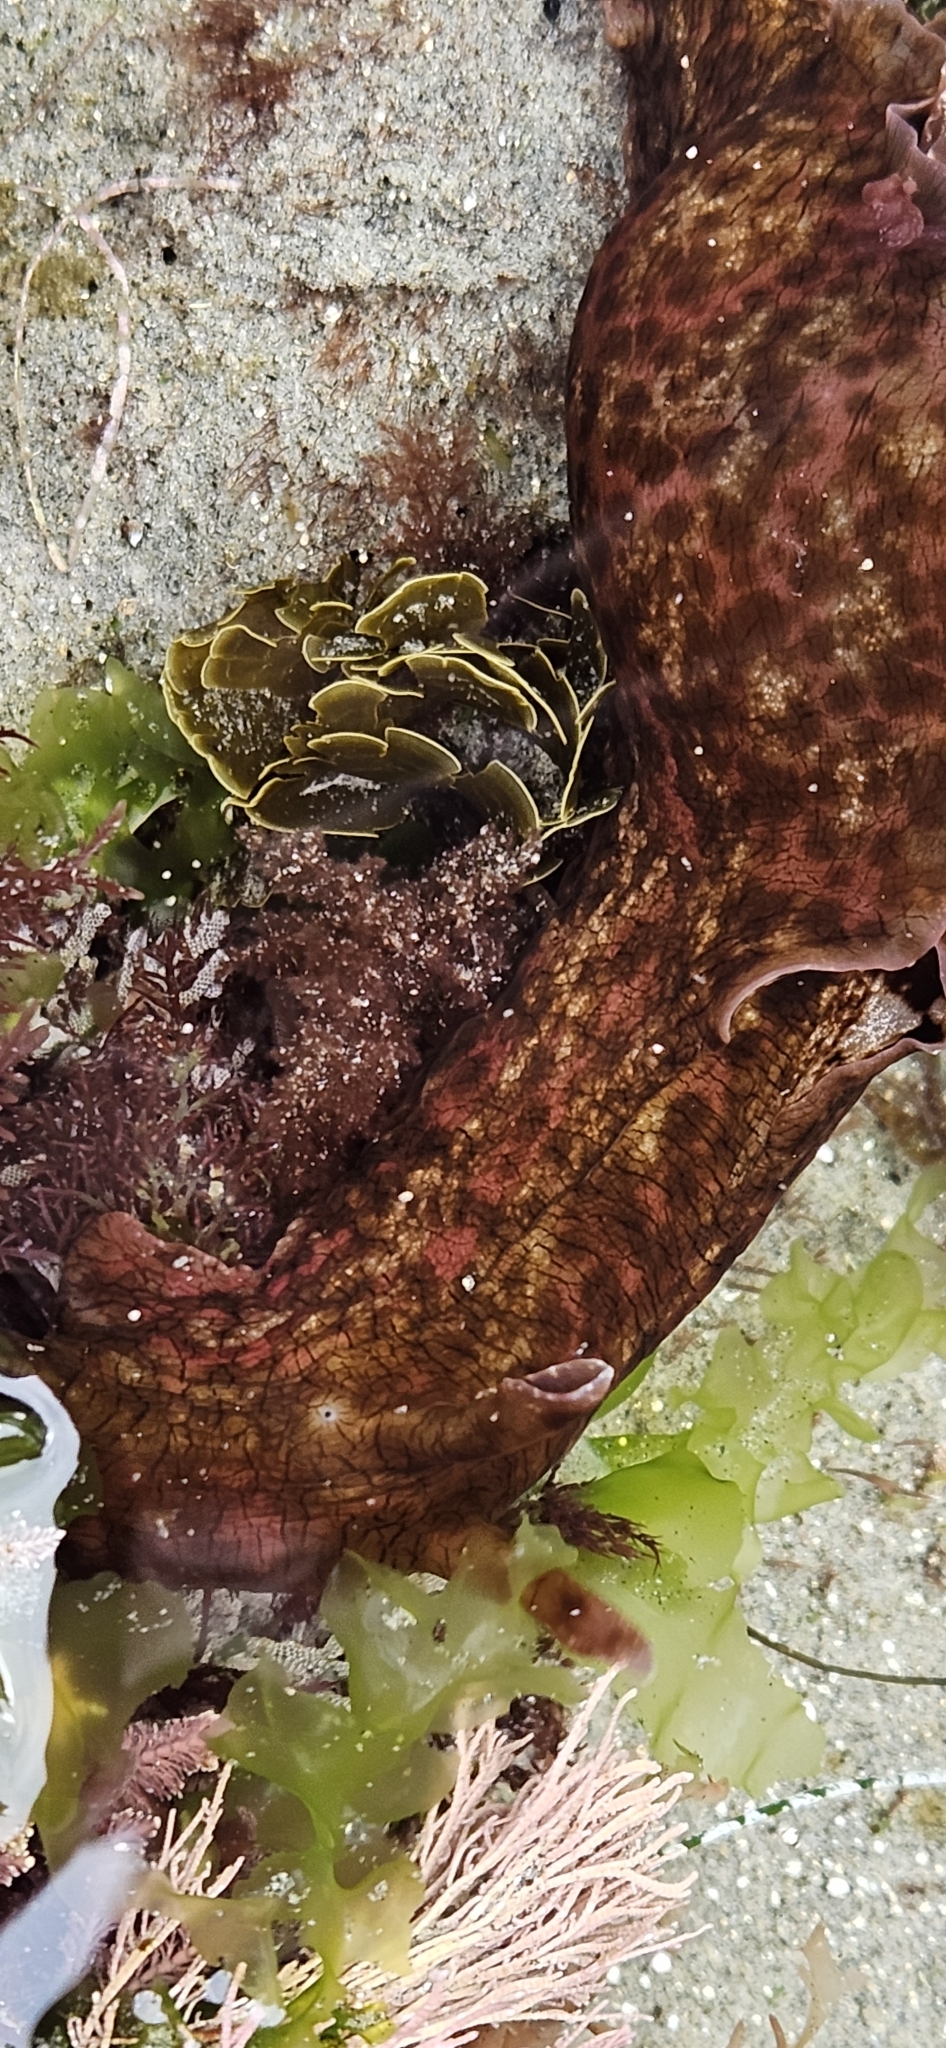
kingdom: Animalia
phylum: Mollusca
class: Gastropoda
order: Aplysiida
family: Aplysiidae
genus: Aplysia
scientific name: Aplysia californica
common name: California seahare
